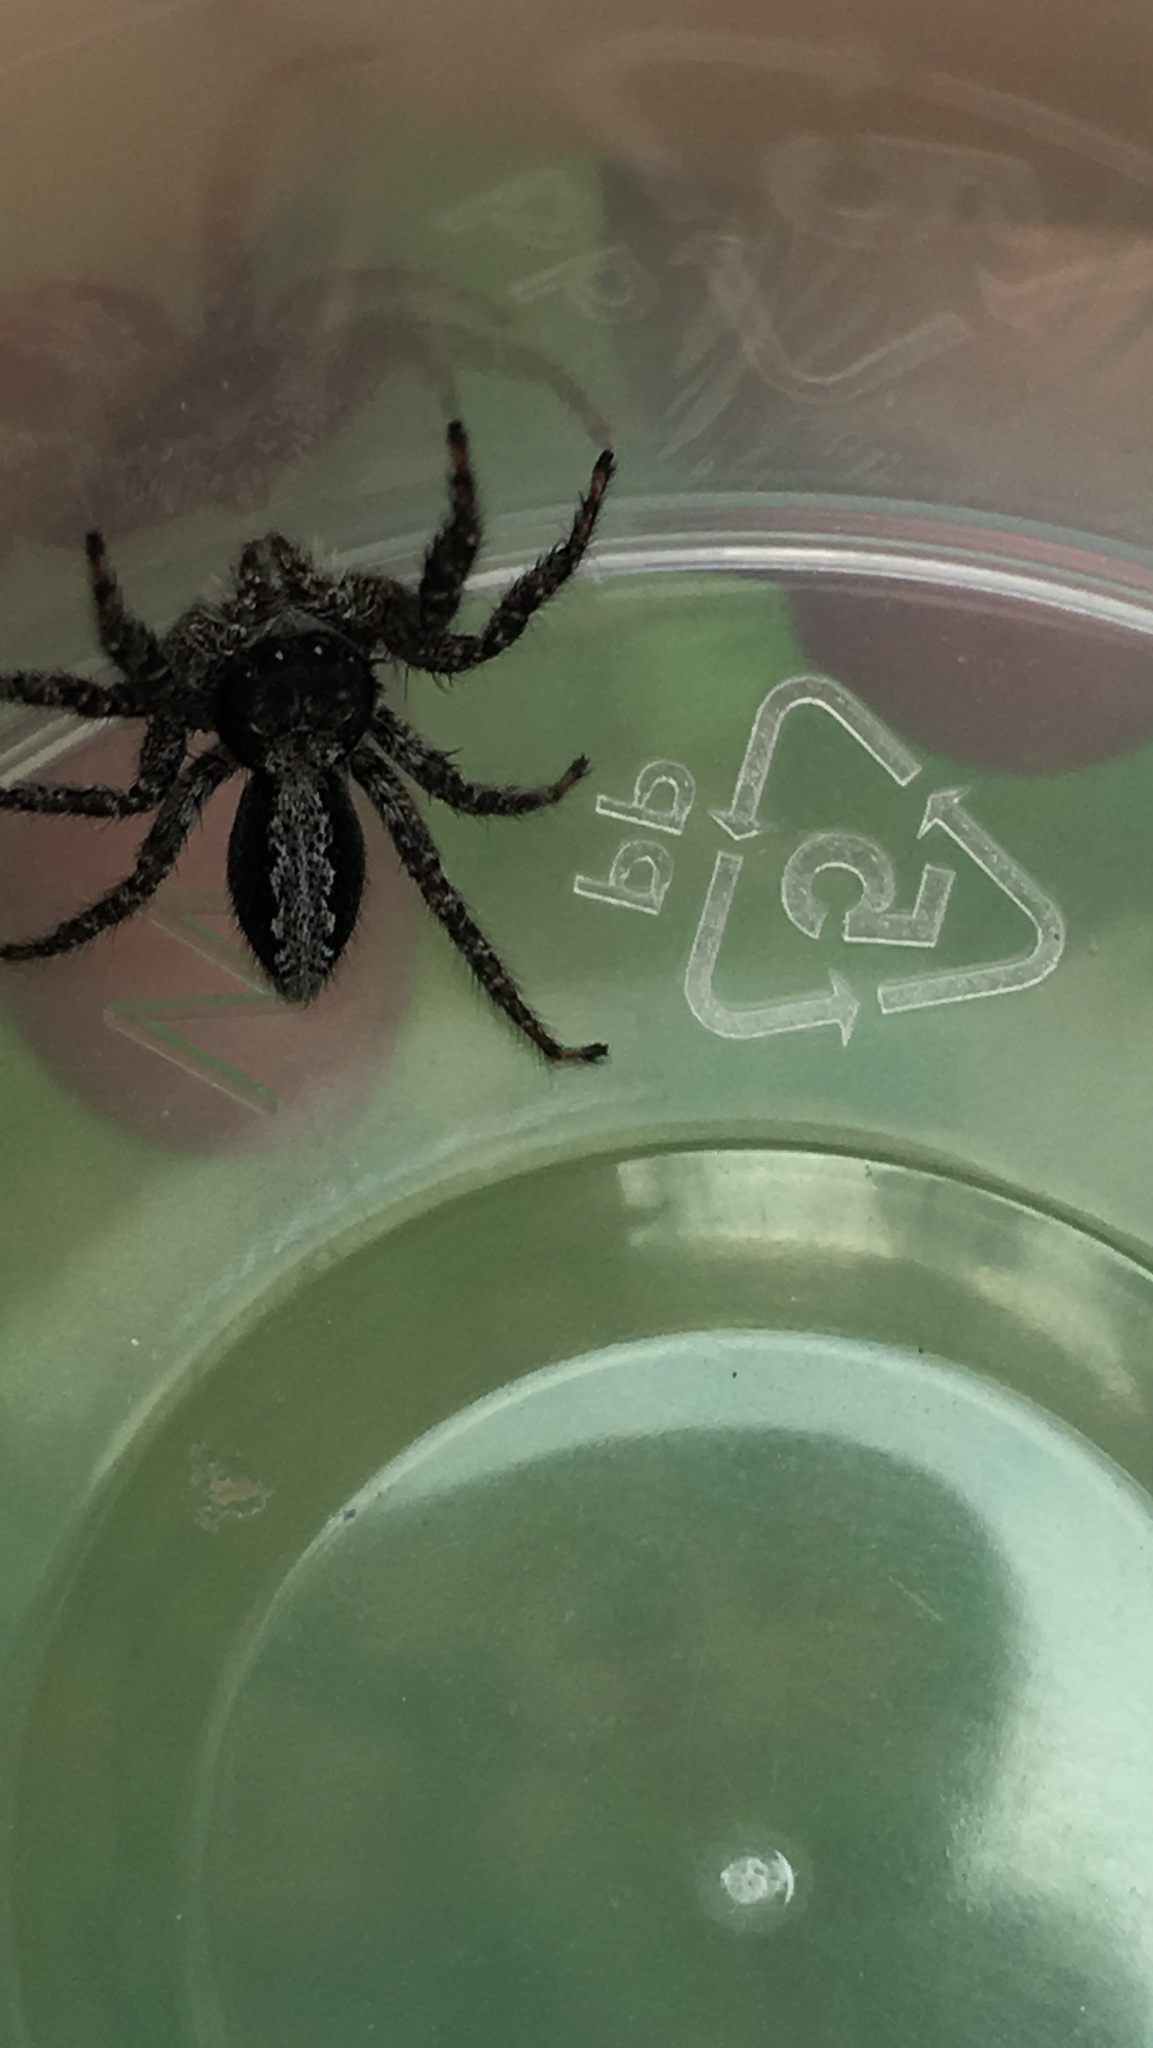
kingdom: Animalia
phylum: Arthropoda
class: Arachnida
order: Araneae
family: Salticidae
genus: Platycryptus
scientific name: Platycryptus californicus
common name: Jumping spiders
